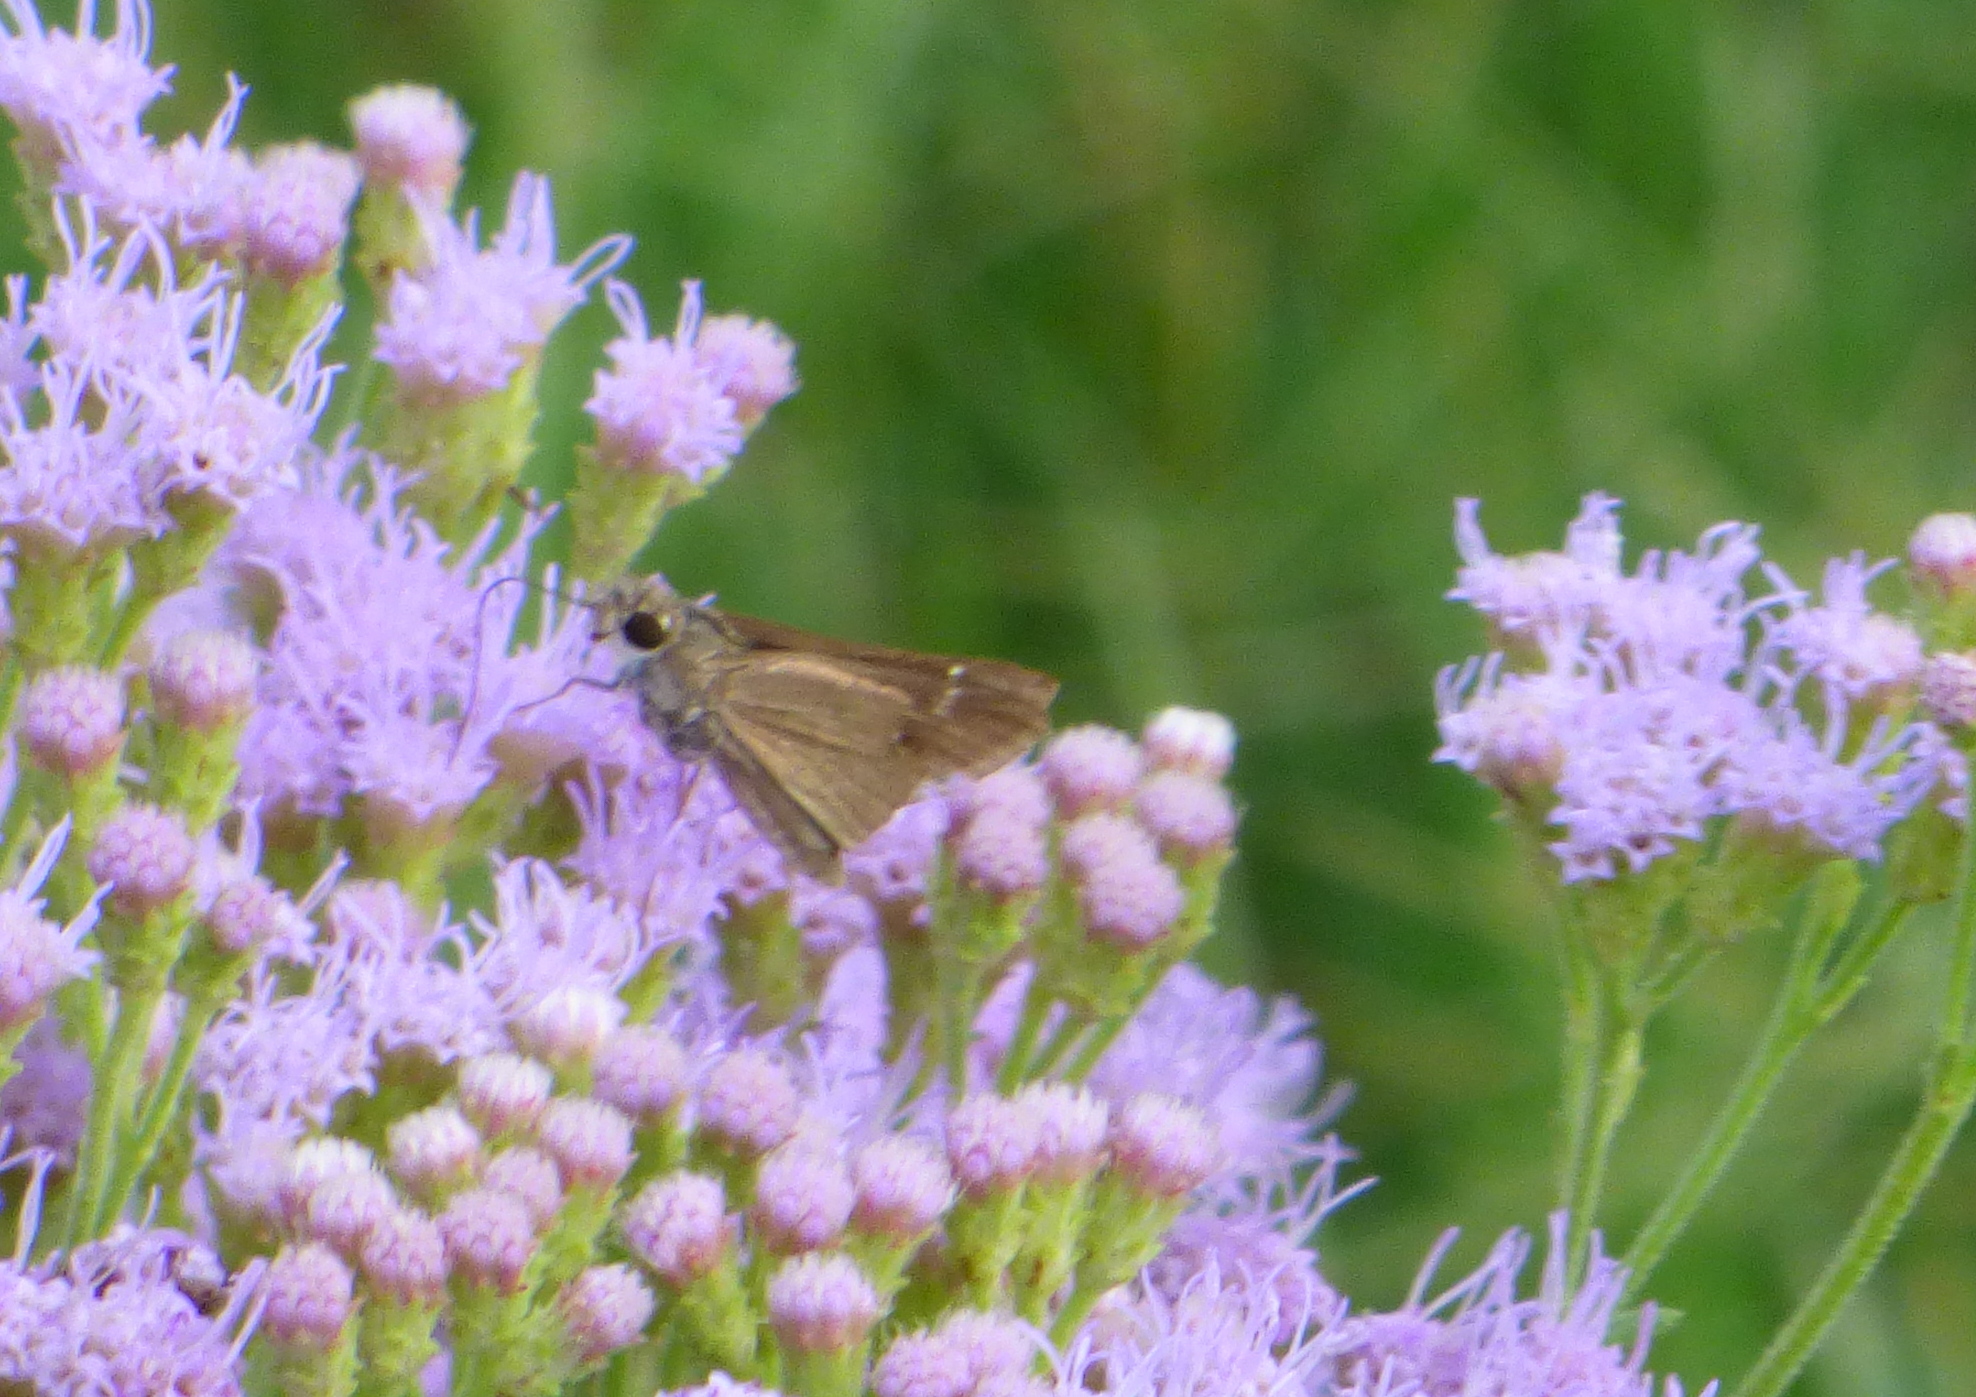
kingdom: Animalia
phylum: Arthropoda
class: Insecta
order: Lepidoptera
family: Hesperiidae
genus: Lerodea
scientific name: Lerodea eufala
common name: Eufala skipper
